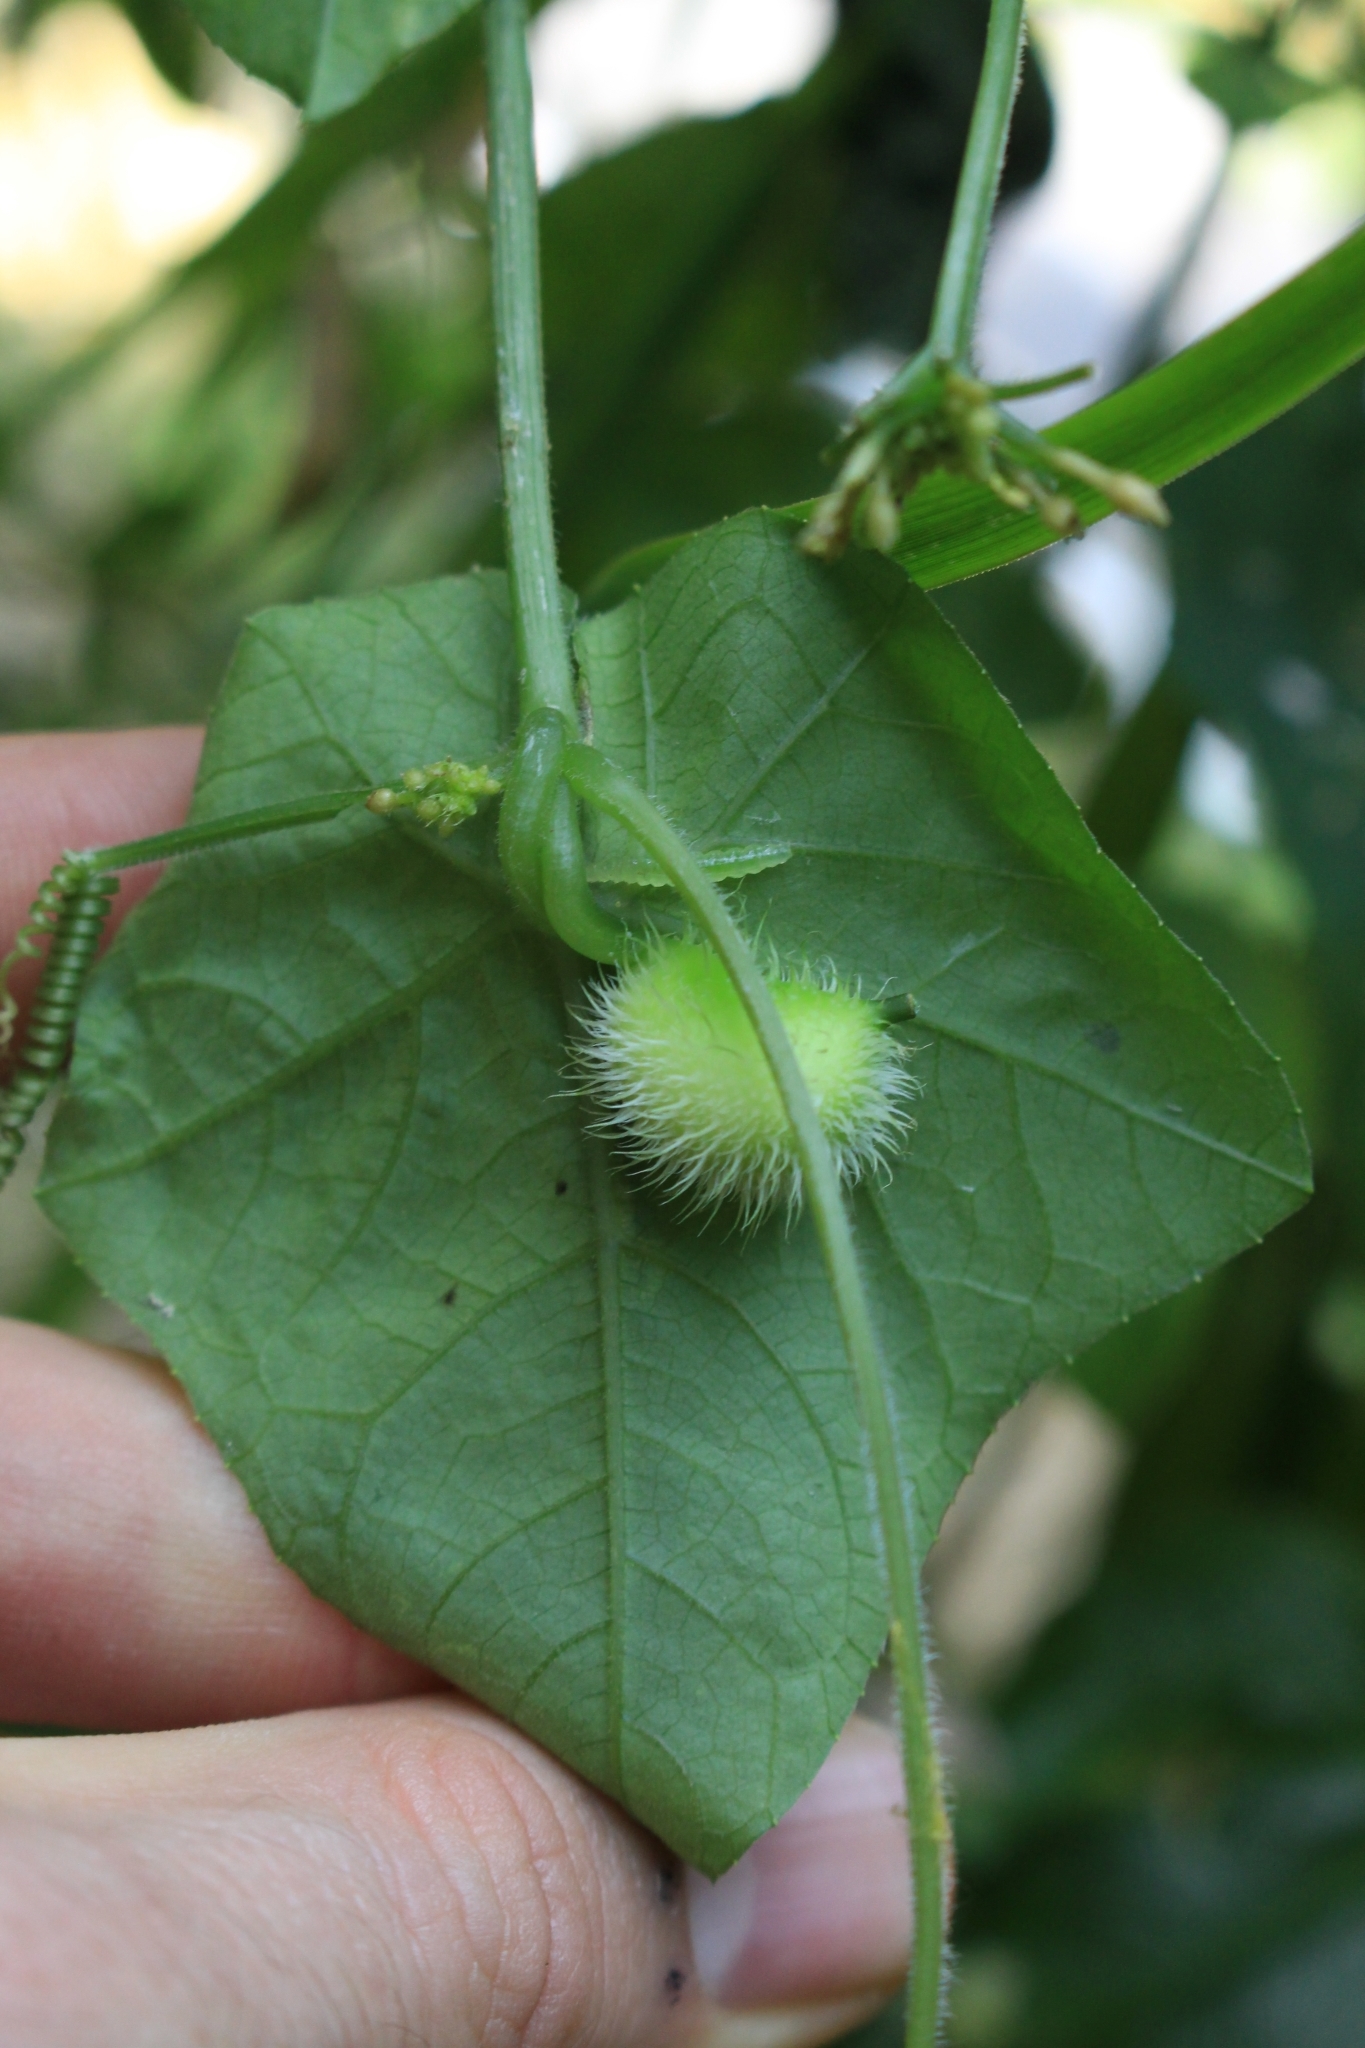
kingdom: Plantae
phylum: Tracheophyta
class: Magnoliopsida
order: Cucurbitales
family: Cucurbitaceae
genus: Cyclanthera
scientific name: Cyclanthera carthagenensis
